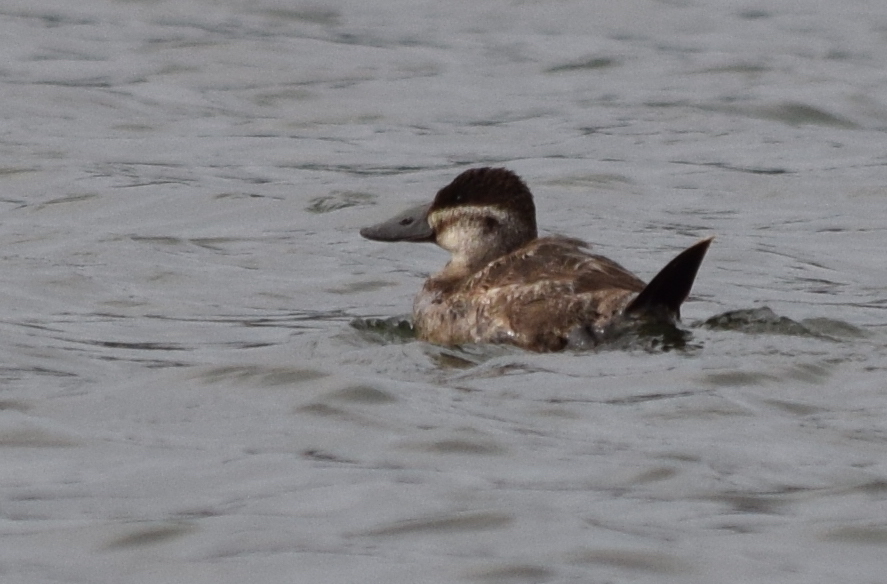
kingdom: Animalia
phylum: Chordata
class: Aves
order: Anseriformes
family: Anatidae
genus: Oxyura
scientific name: Oxyura jamaicensis
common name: Ruddy duck
